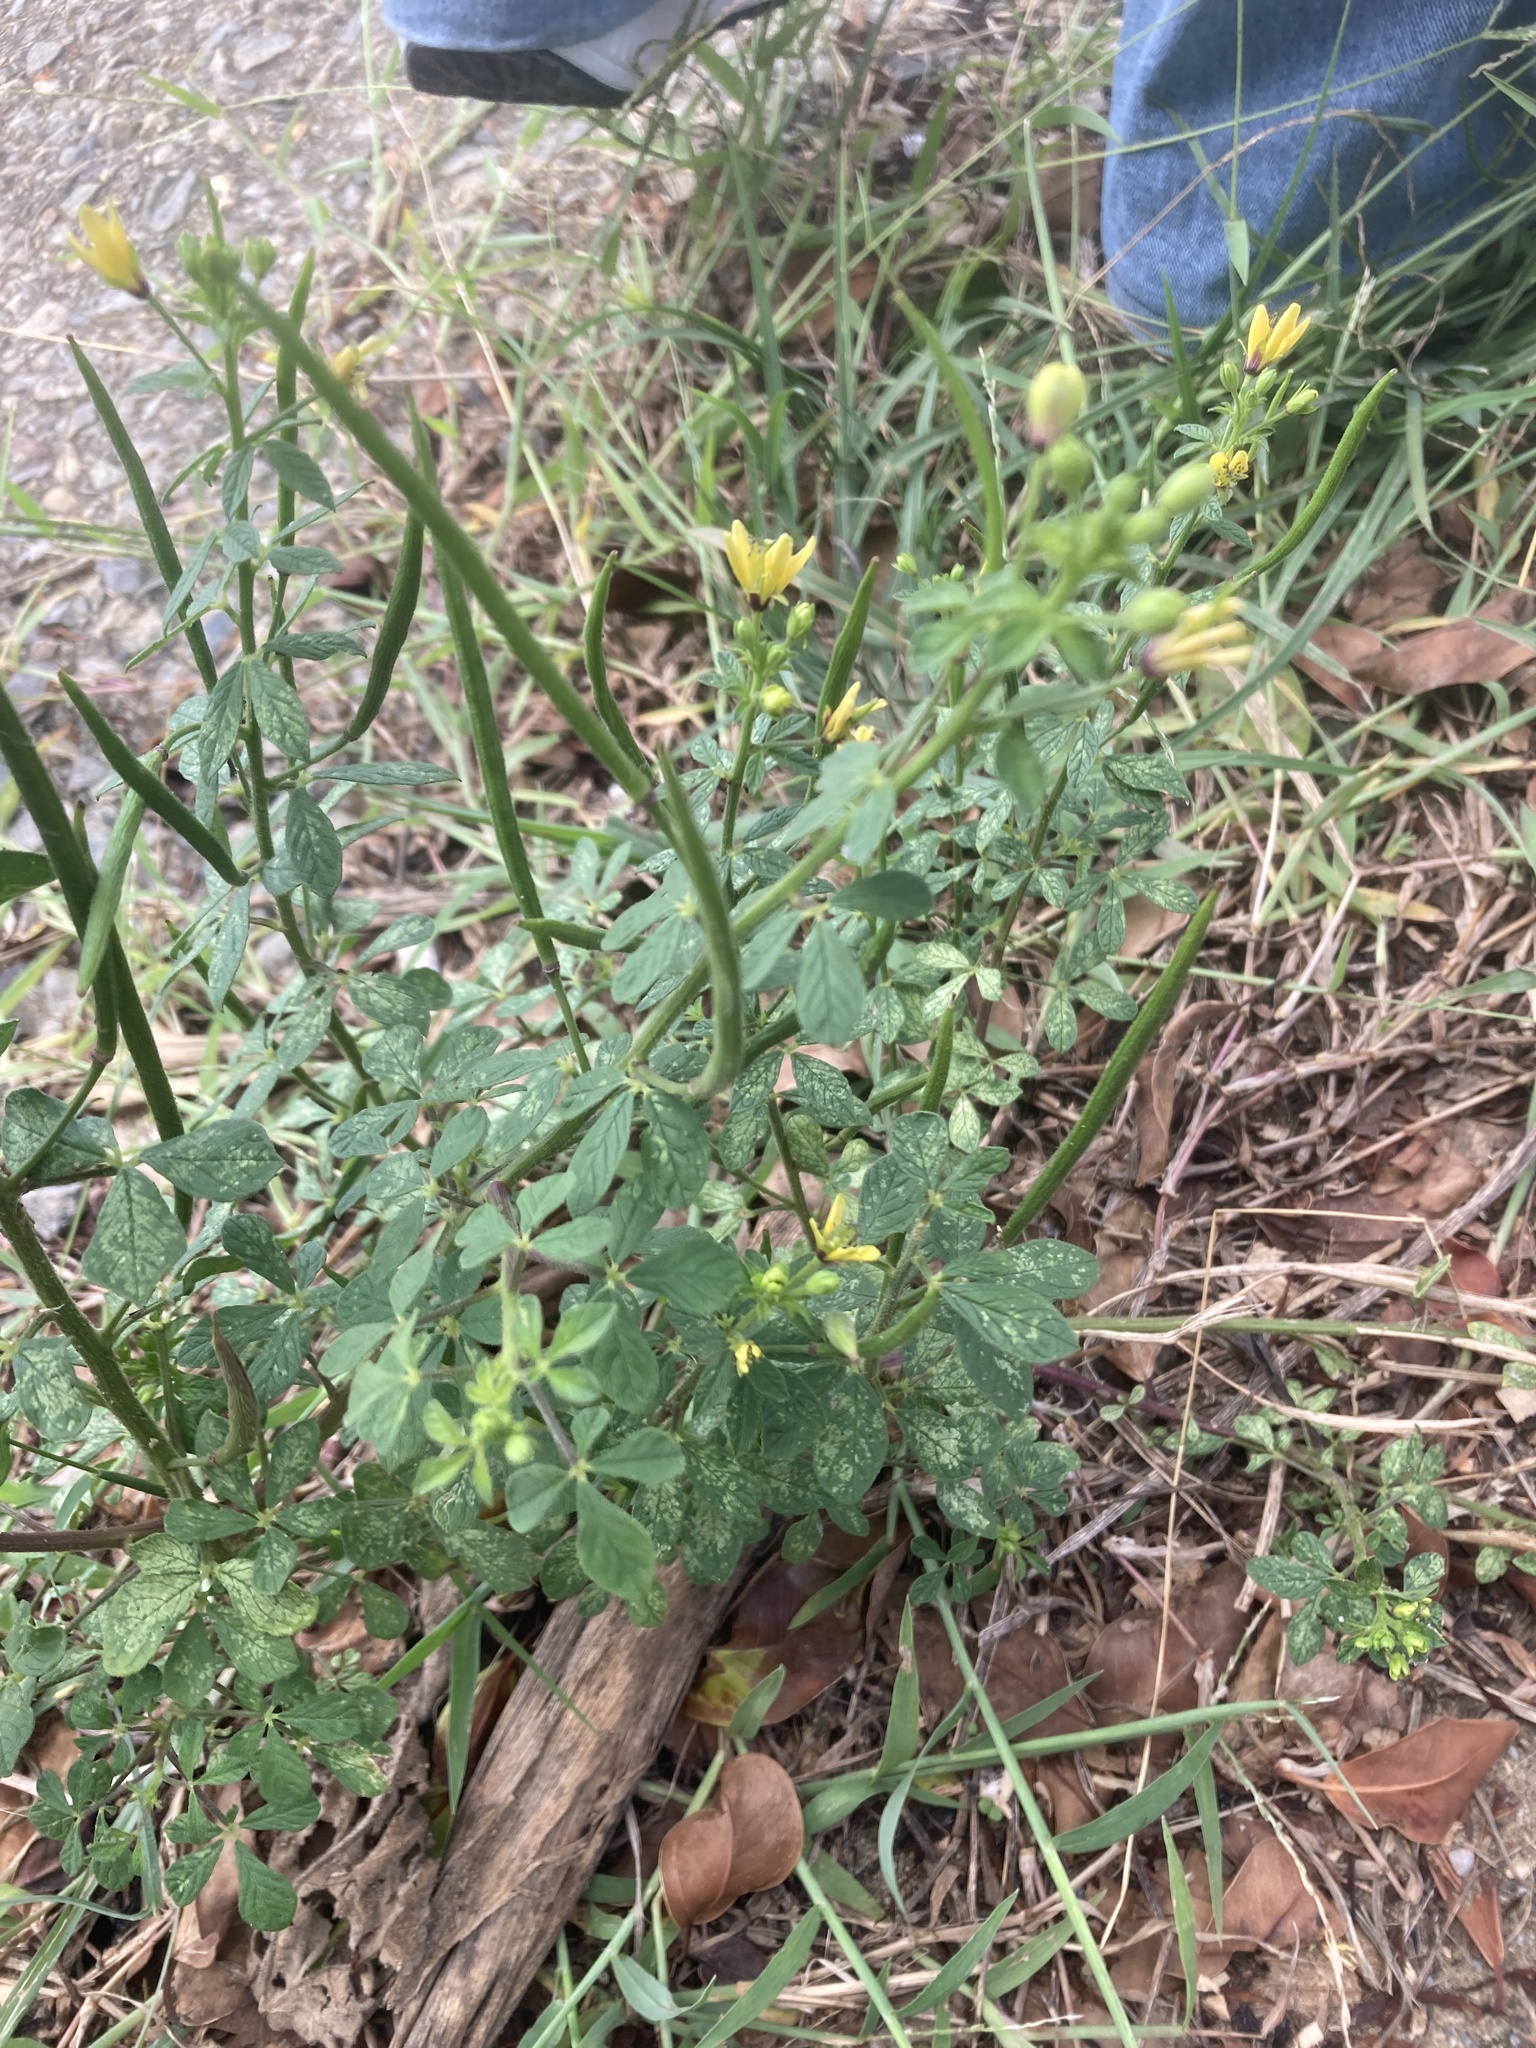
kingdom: Plantae
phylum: Tracheophyta
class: Magnoliopsida
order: Brassicales
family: Cleomaceae
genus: Arivela
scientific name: Arivela viscosa
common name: Asian spiderflower
